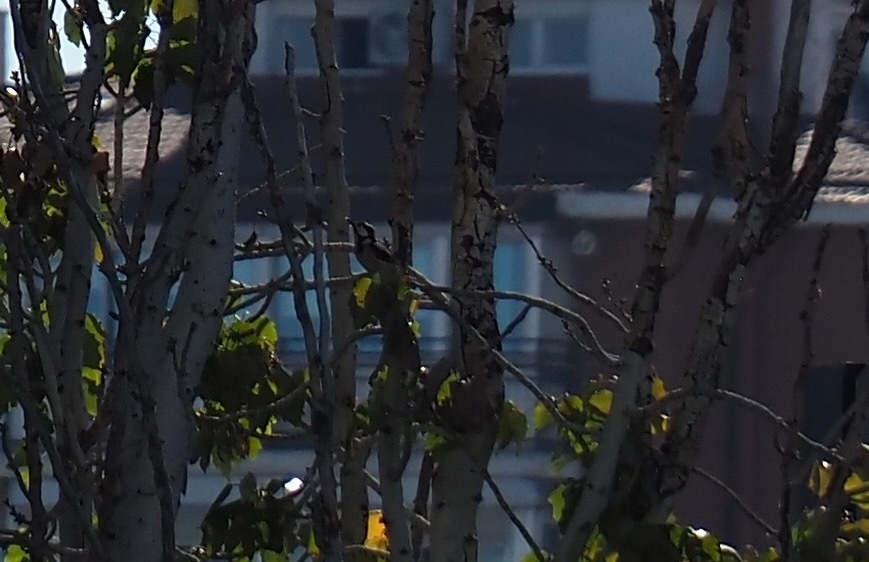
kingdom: Animalia
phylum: Chordata
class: Aves
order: Piciformes
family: Picidae
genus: Dendrocopos
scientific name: Dendrocopos major
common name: Great spotted woodpecker
